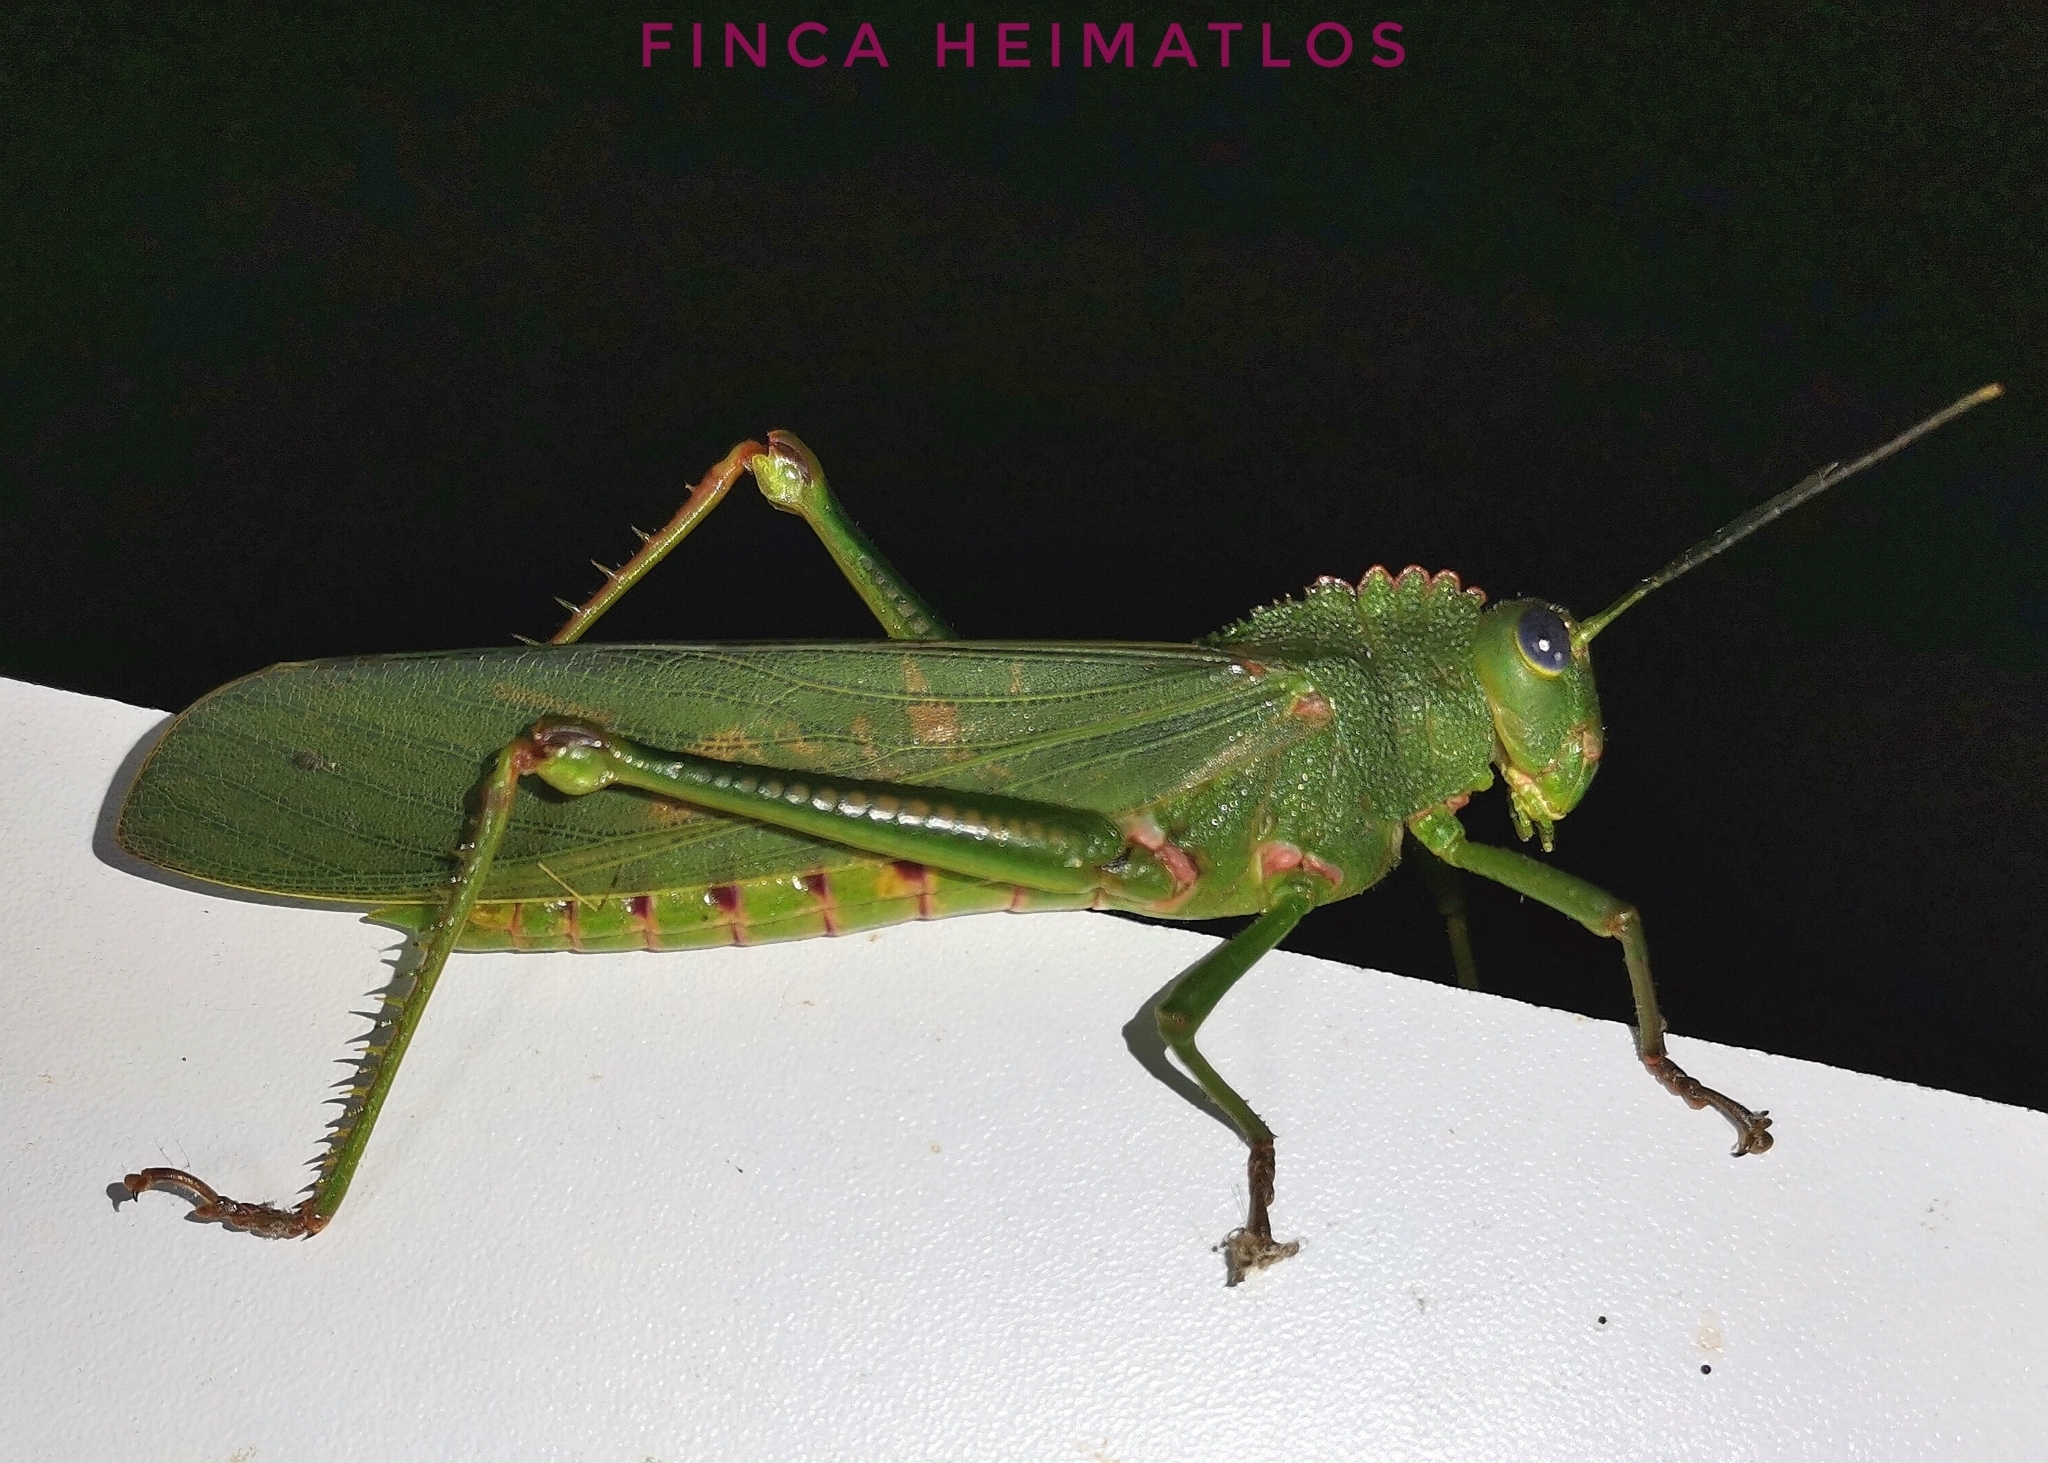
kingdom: Animalia
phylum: Arthropoda
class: Insecta
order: Orthoptera
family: Romaleidae
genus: Titanacris
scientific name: Titanacris humboldtii
